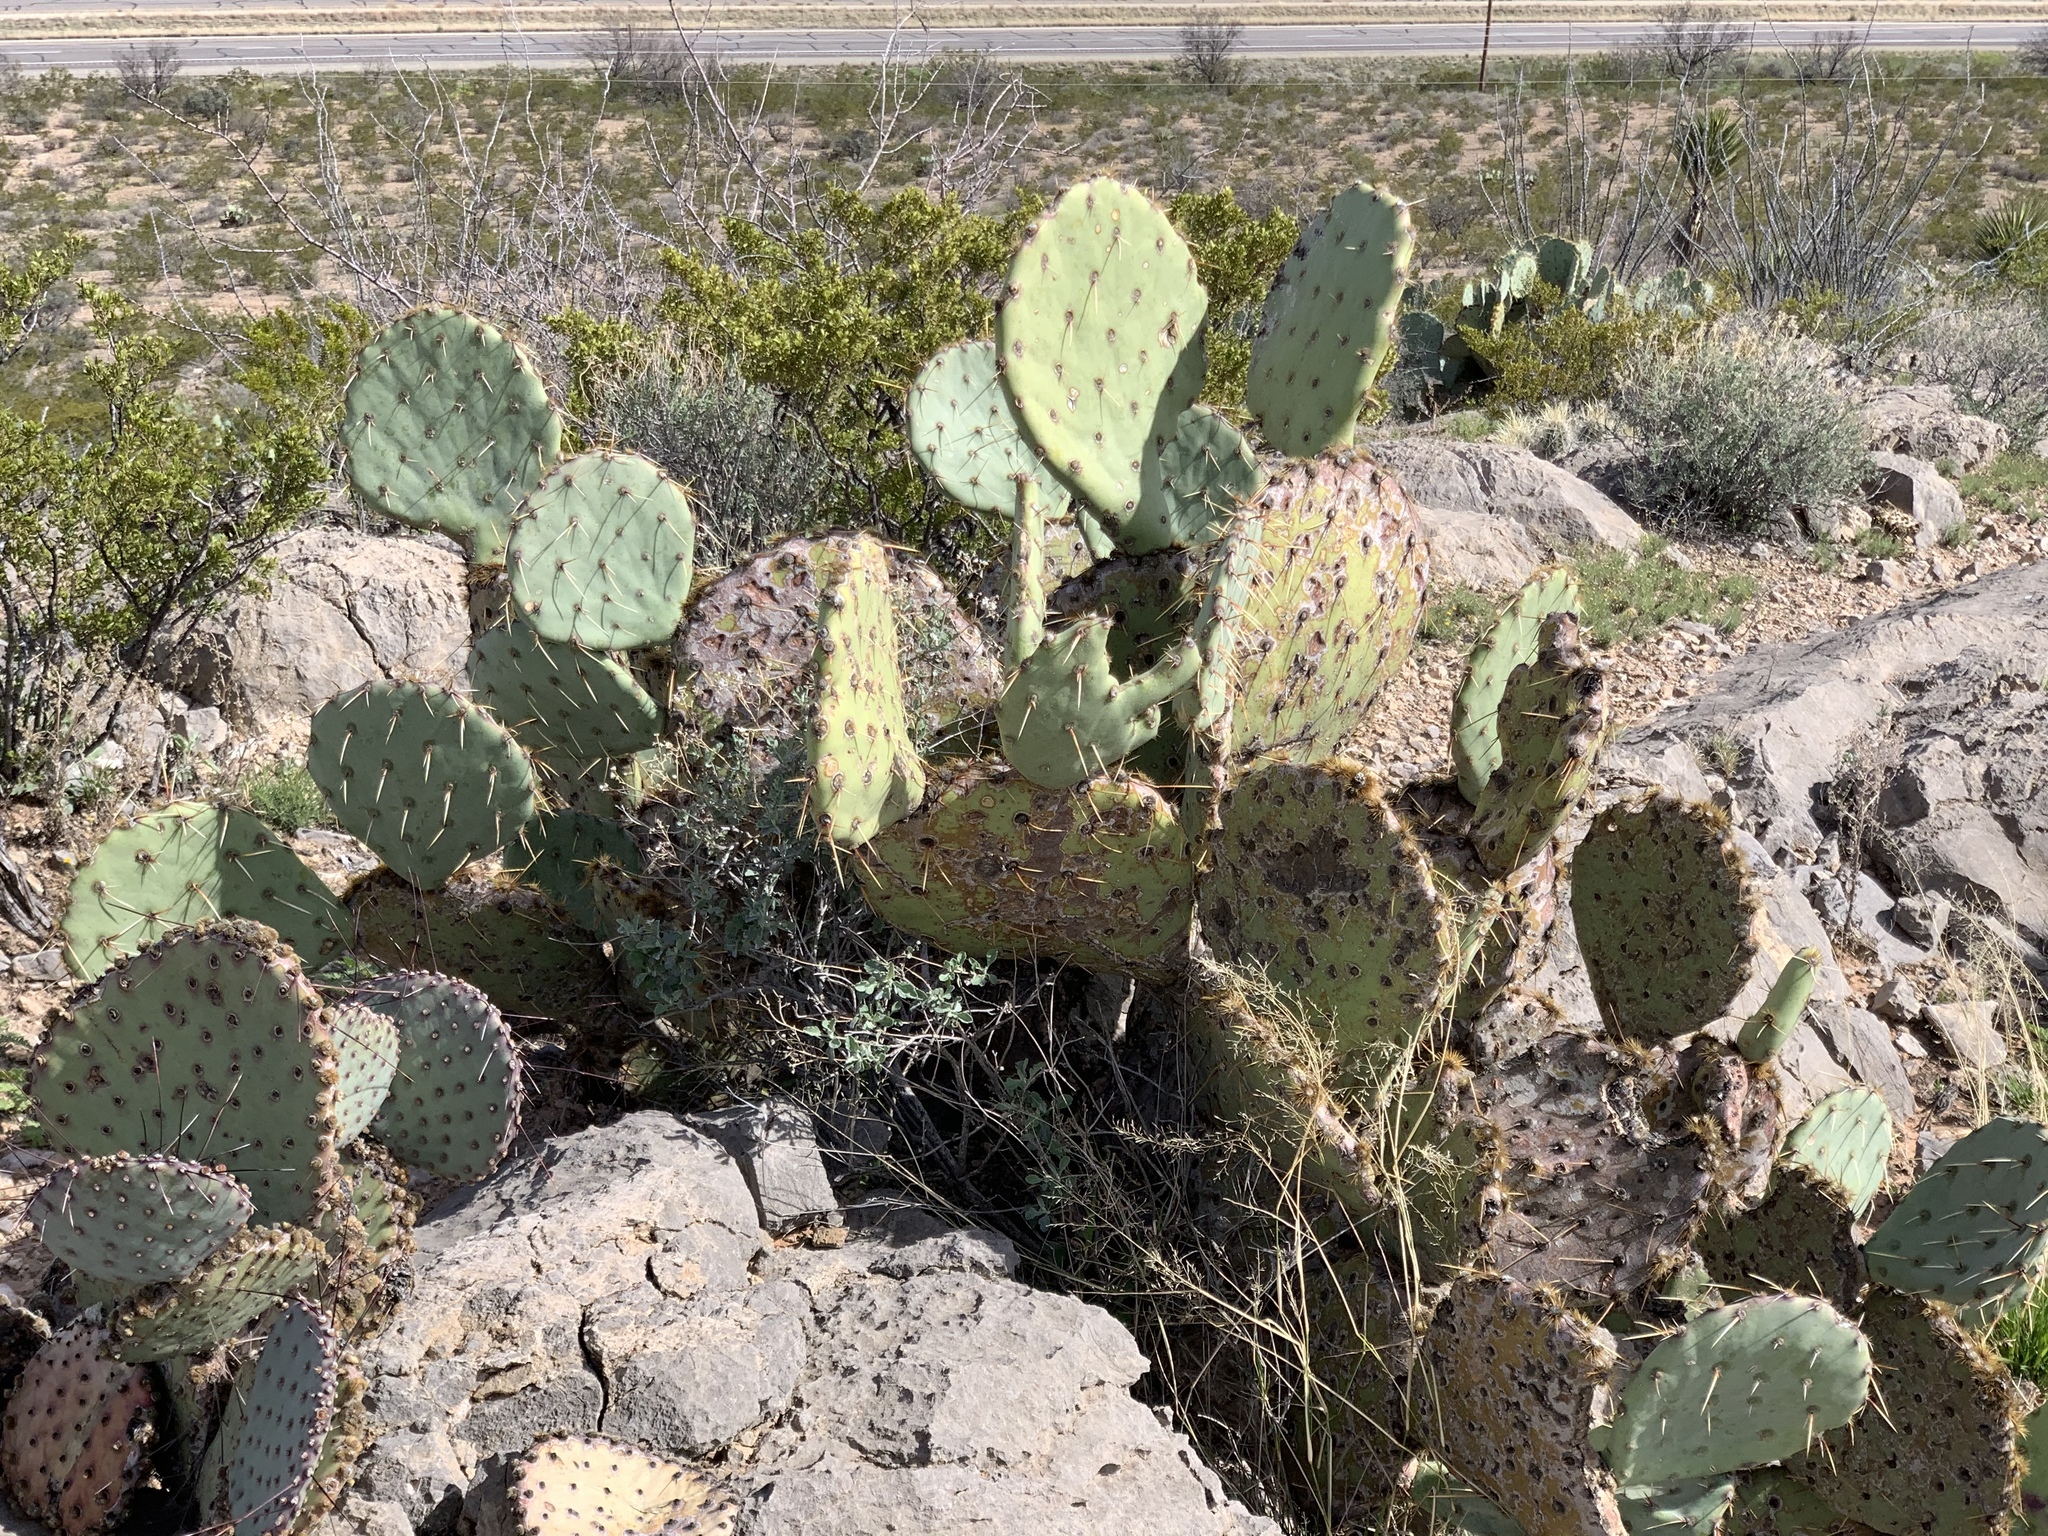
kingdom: Plantae
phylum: Tracheophyta
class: Magnoliopsida
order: Caryophyllales
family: Cactaceae
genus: Opuntia
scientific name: Opuntia engelmannii
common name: Cactus-apple
